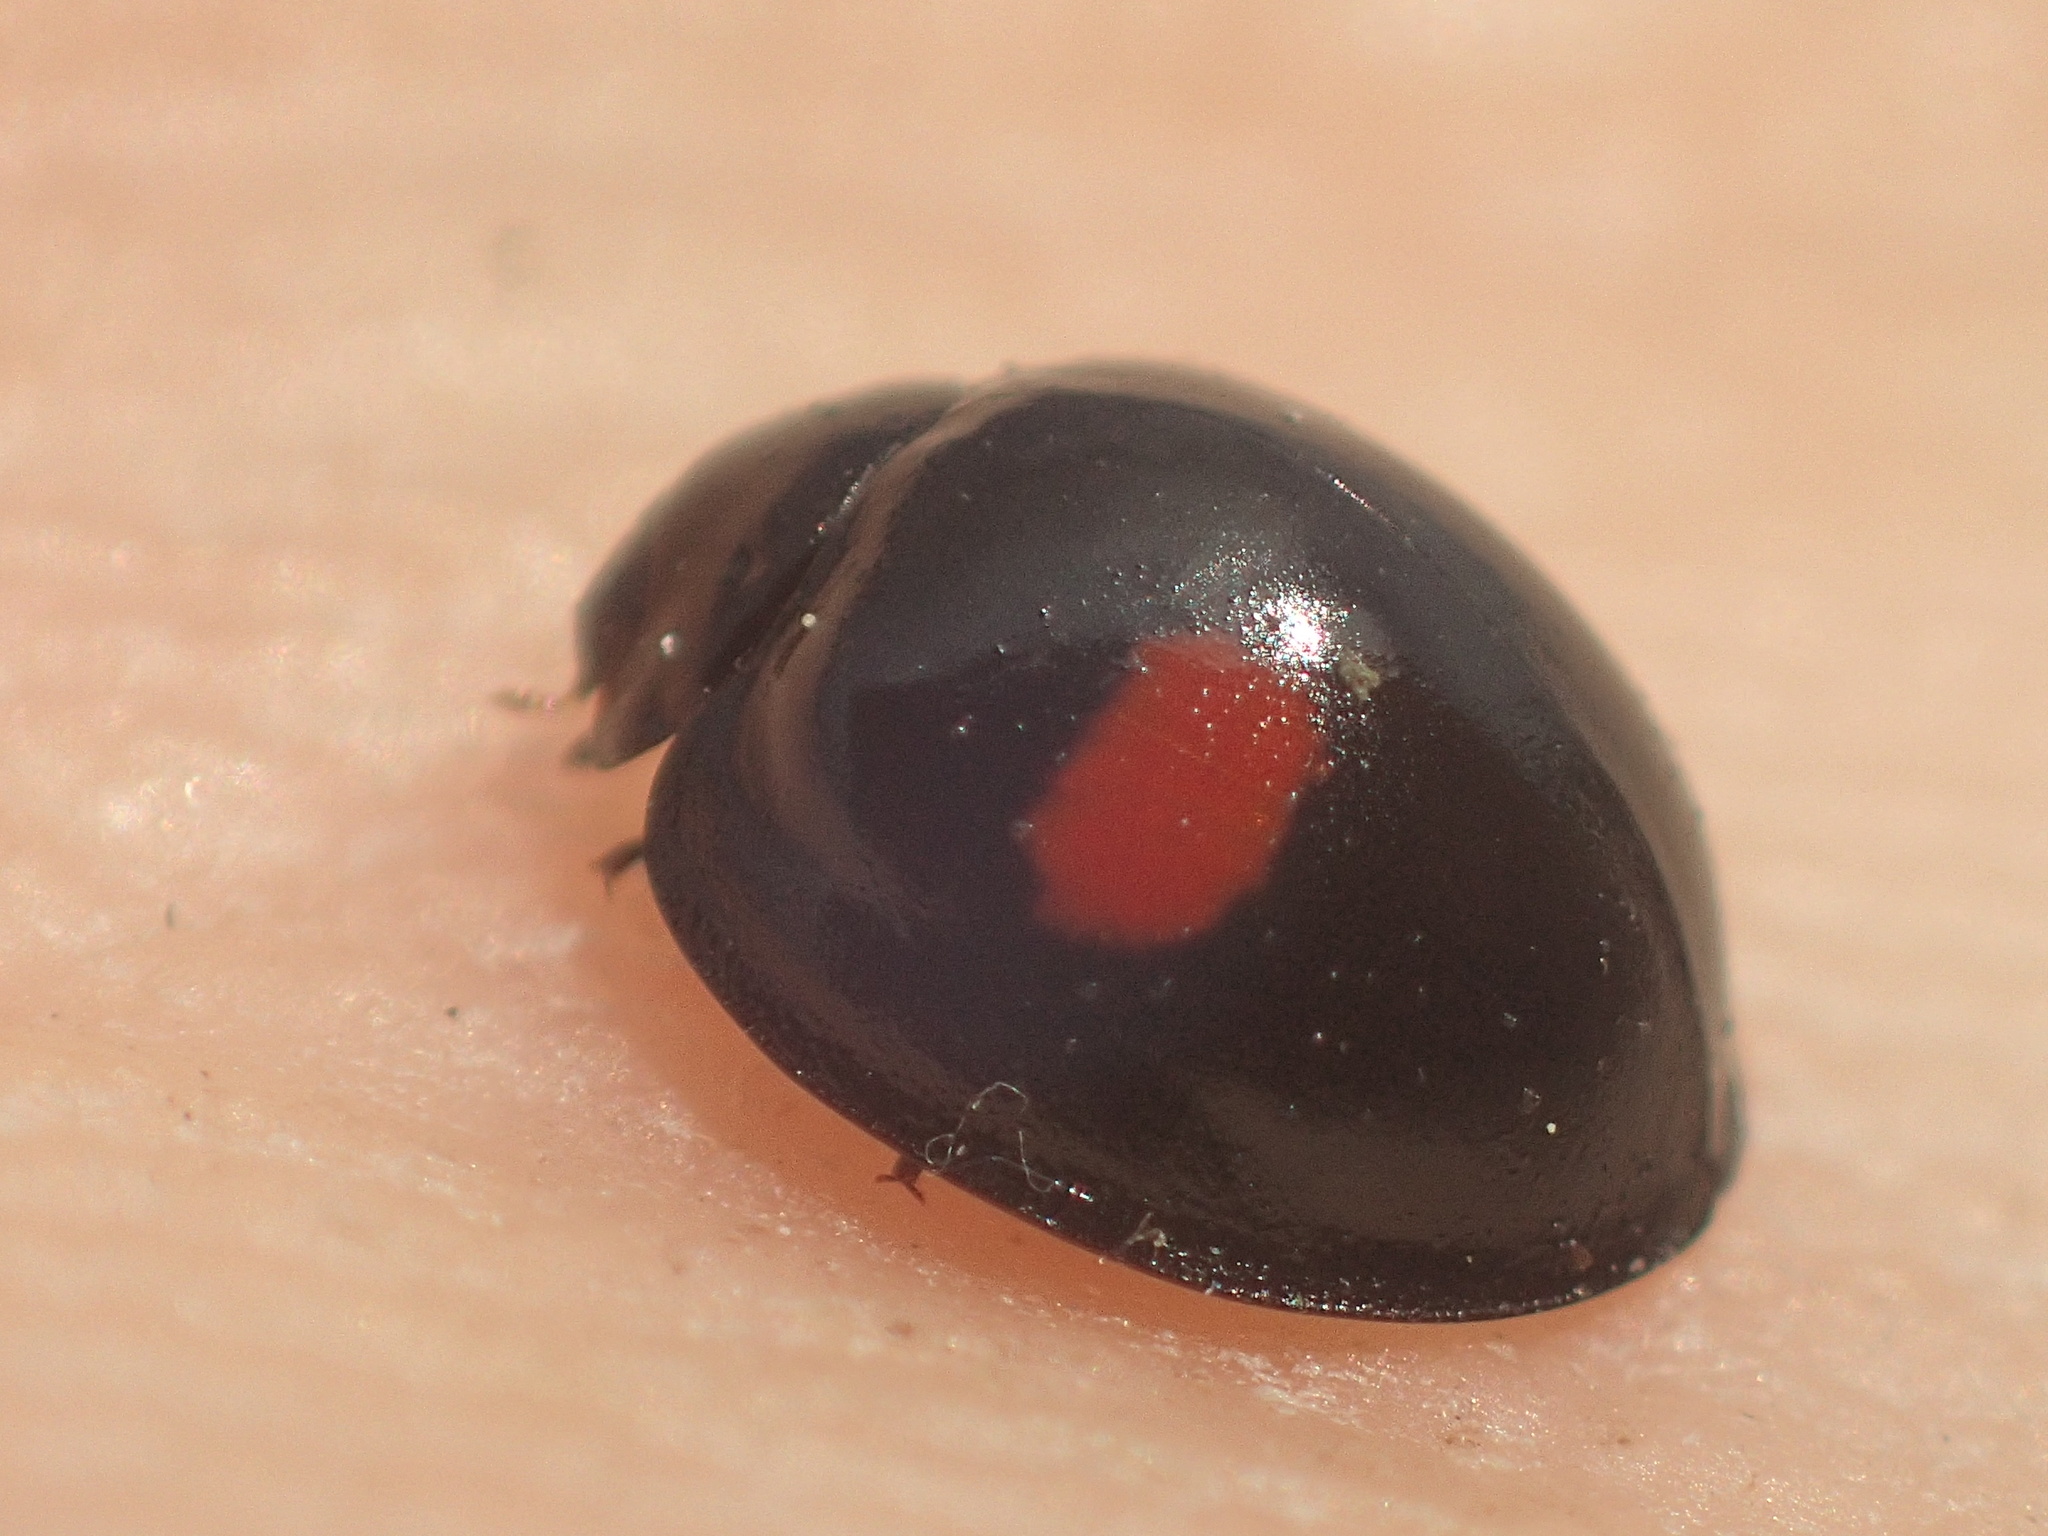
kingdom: Animalia
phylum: Arthropoda
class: Insecta
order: Coleoptera
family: Coccinellidae
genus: Chilocorus
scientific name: Chilocorus renipustulatus
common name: Kidney-spot ladybird
